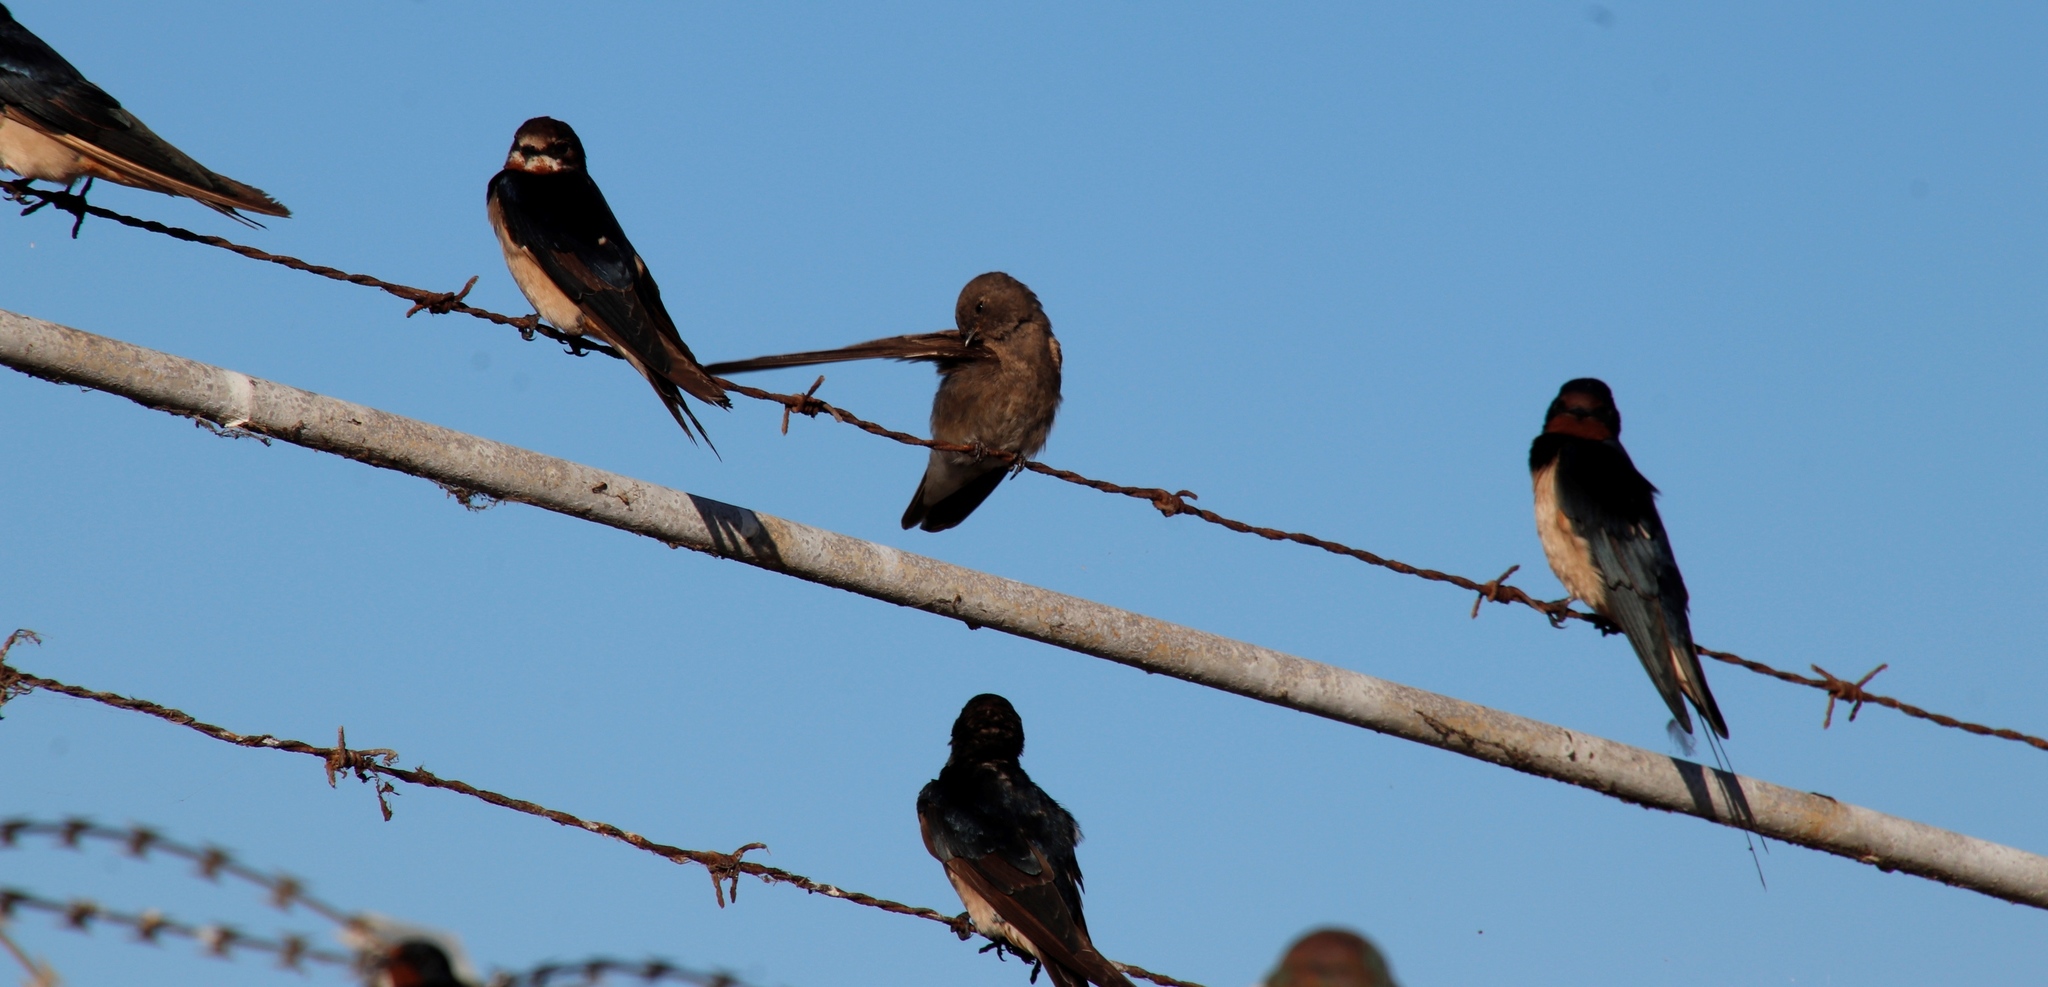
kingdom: Animalia
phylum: Chordata
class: Aves
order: Passeriformes
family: Hirundinidae
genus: Hirundo
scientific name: Hirundo rustica
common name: Barn swallow
